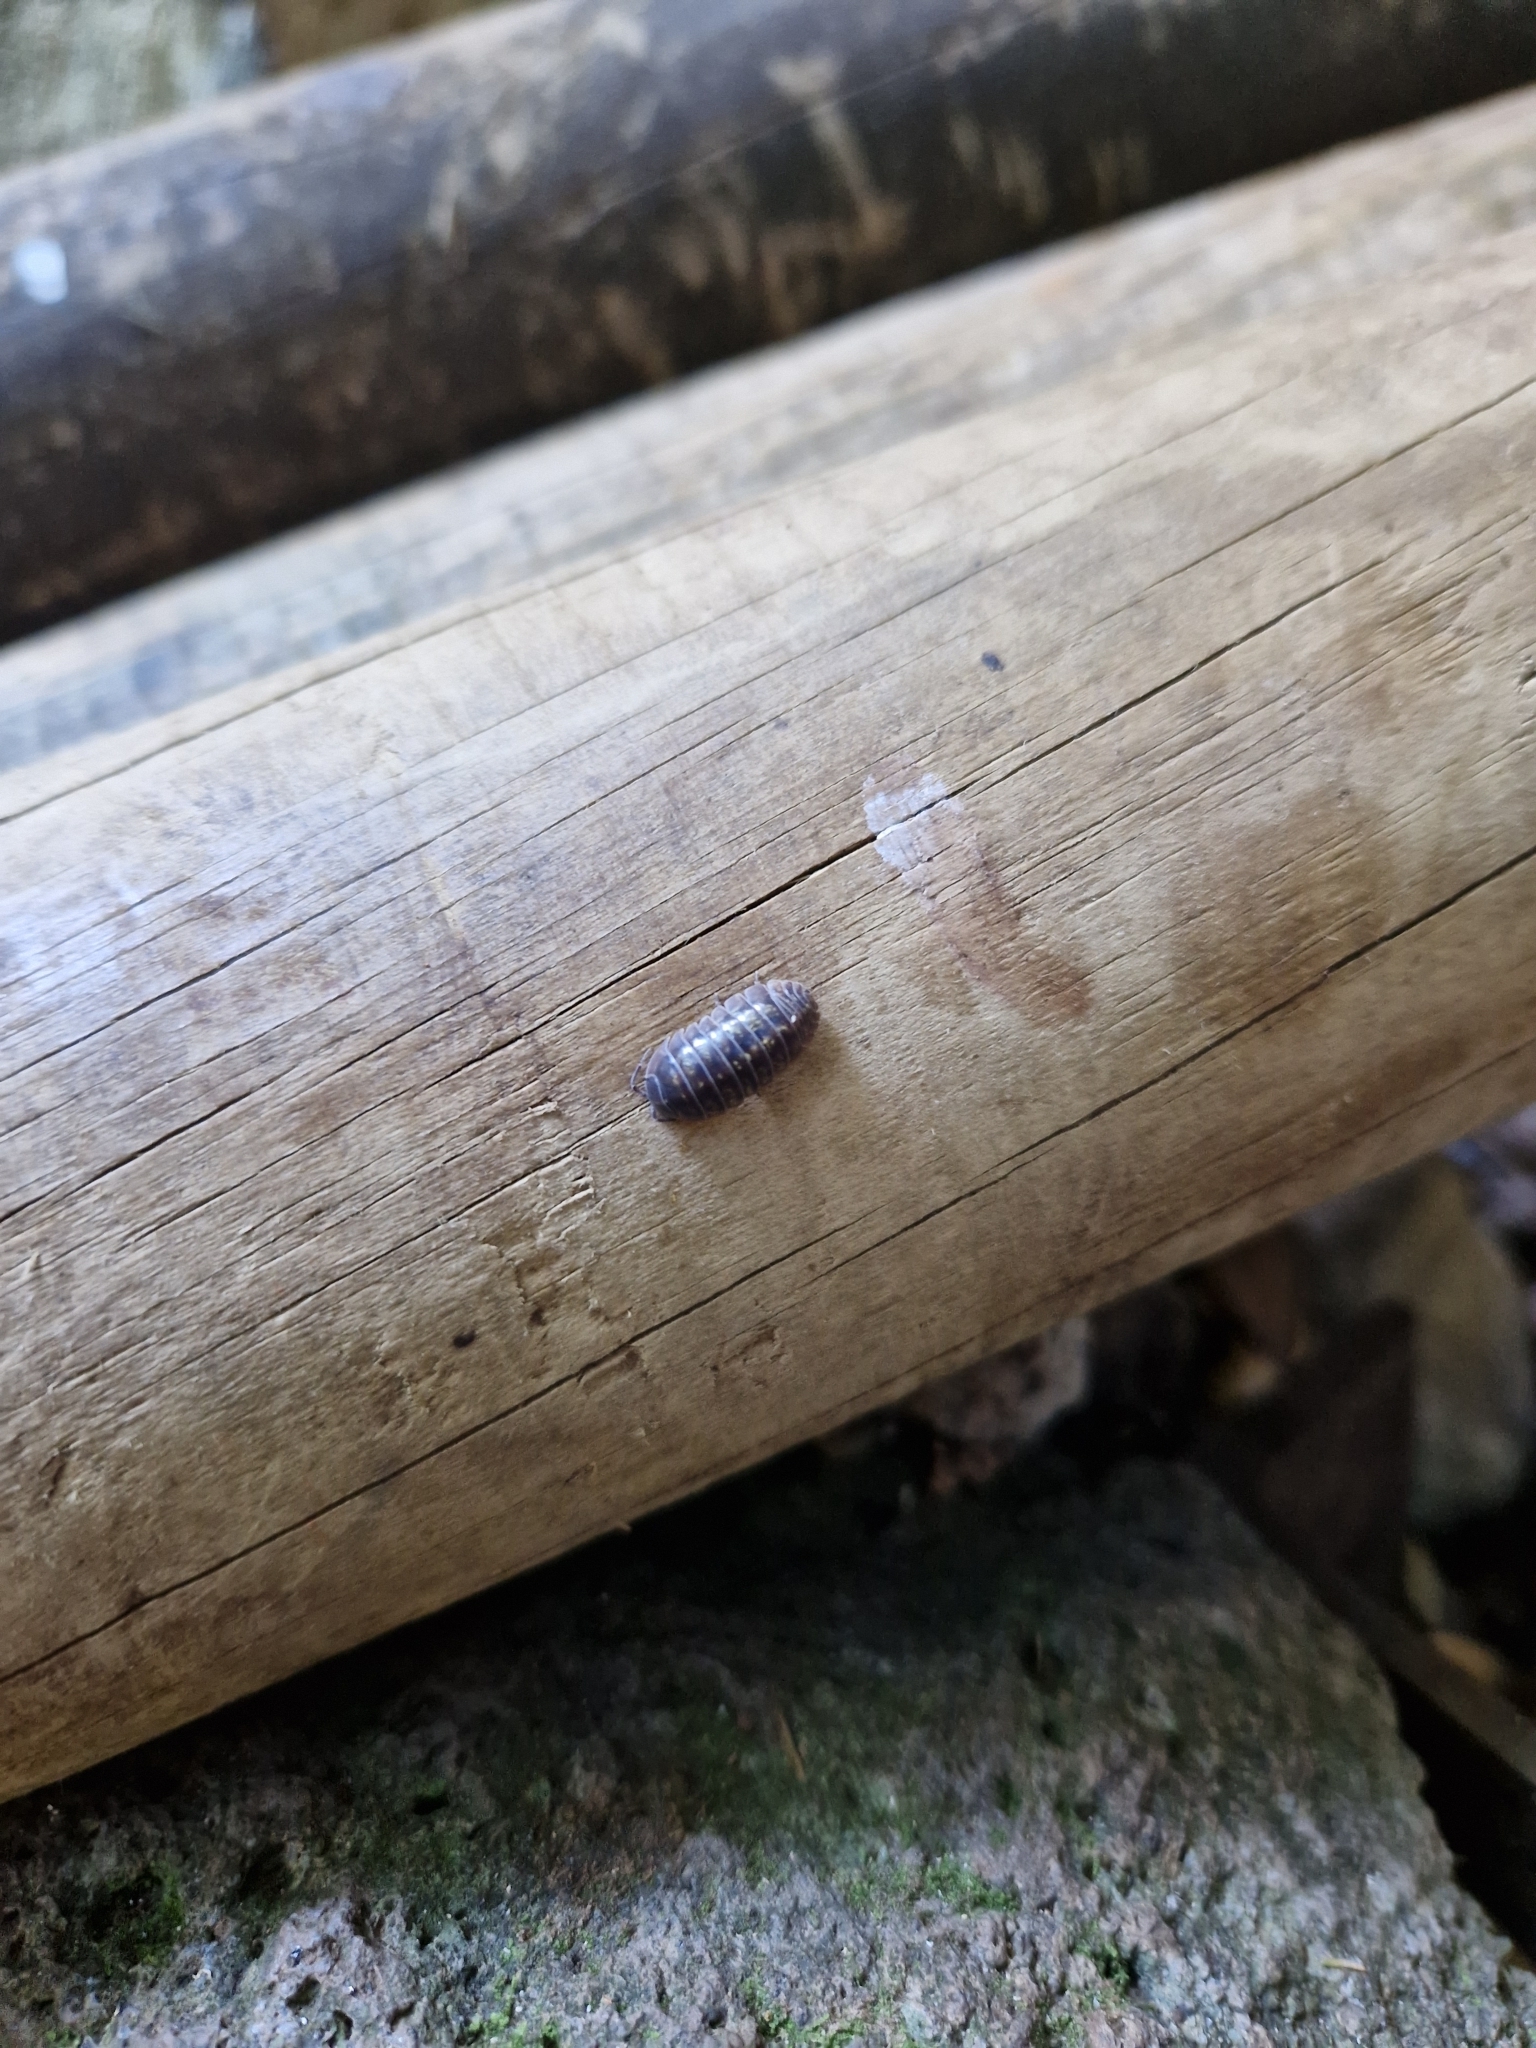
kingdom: Animalia
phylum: Arthropoda
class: Malacostraca
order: Isopoda
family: Armadillidiidae
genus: Armadillidium
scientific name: Armadillidium vulgare
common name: Common pill woodlouse
